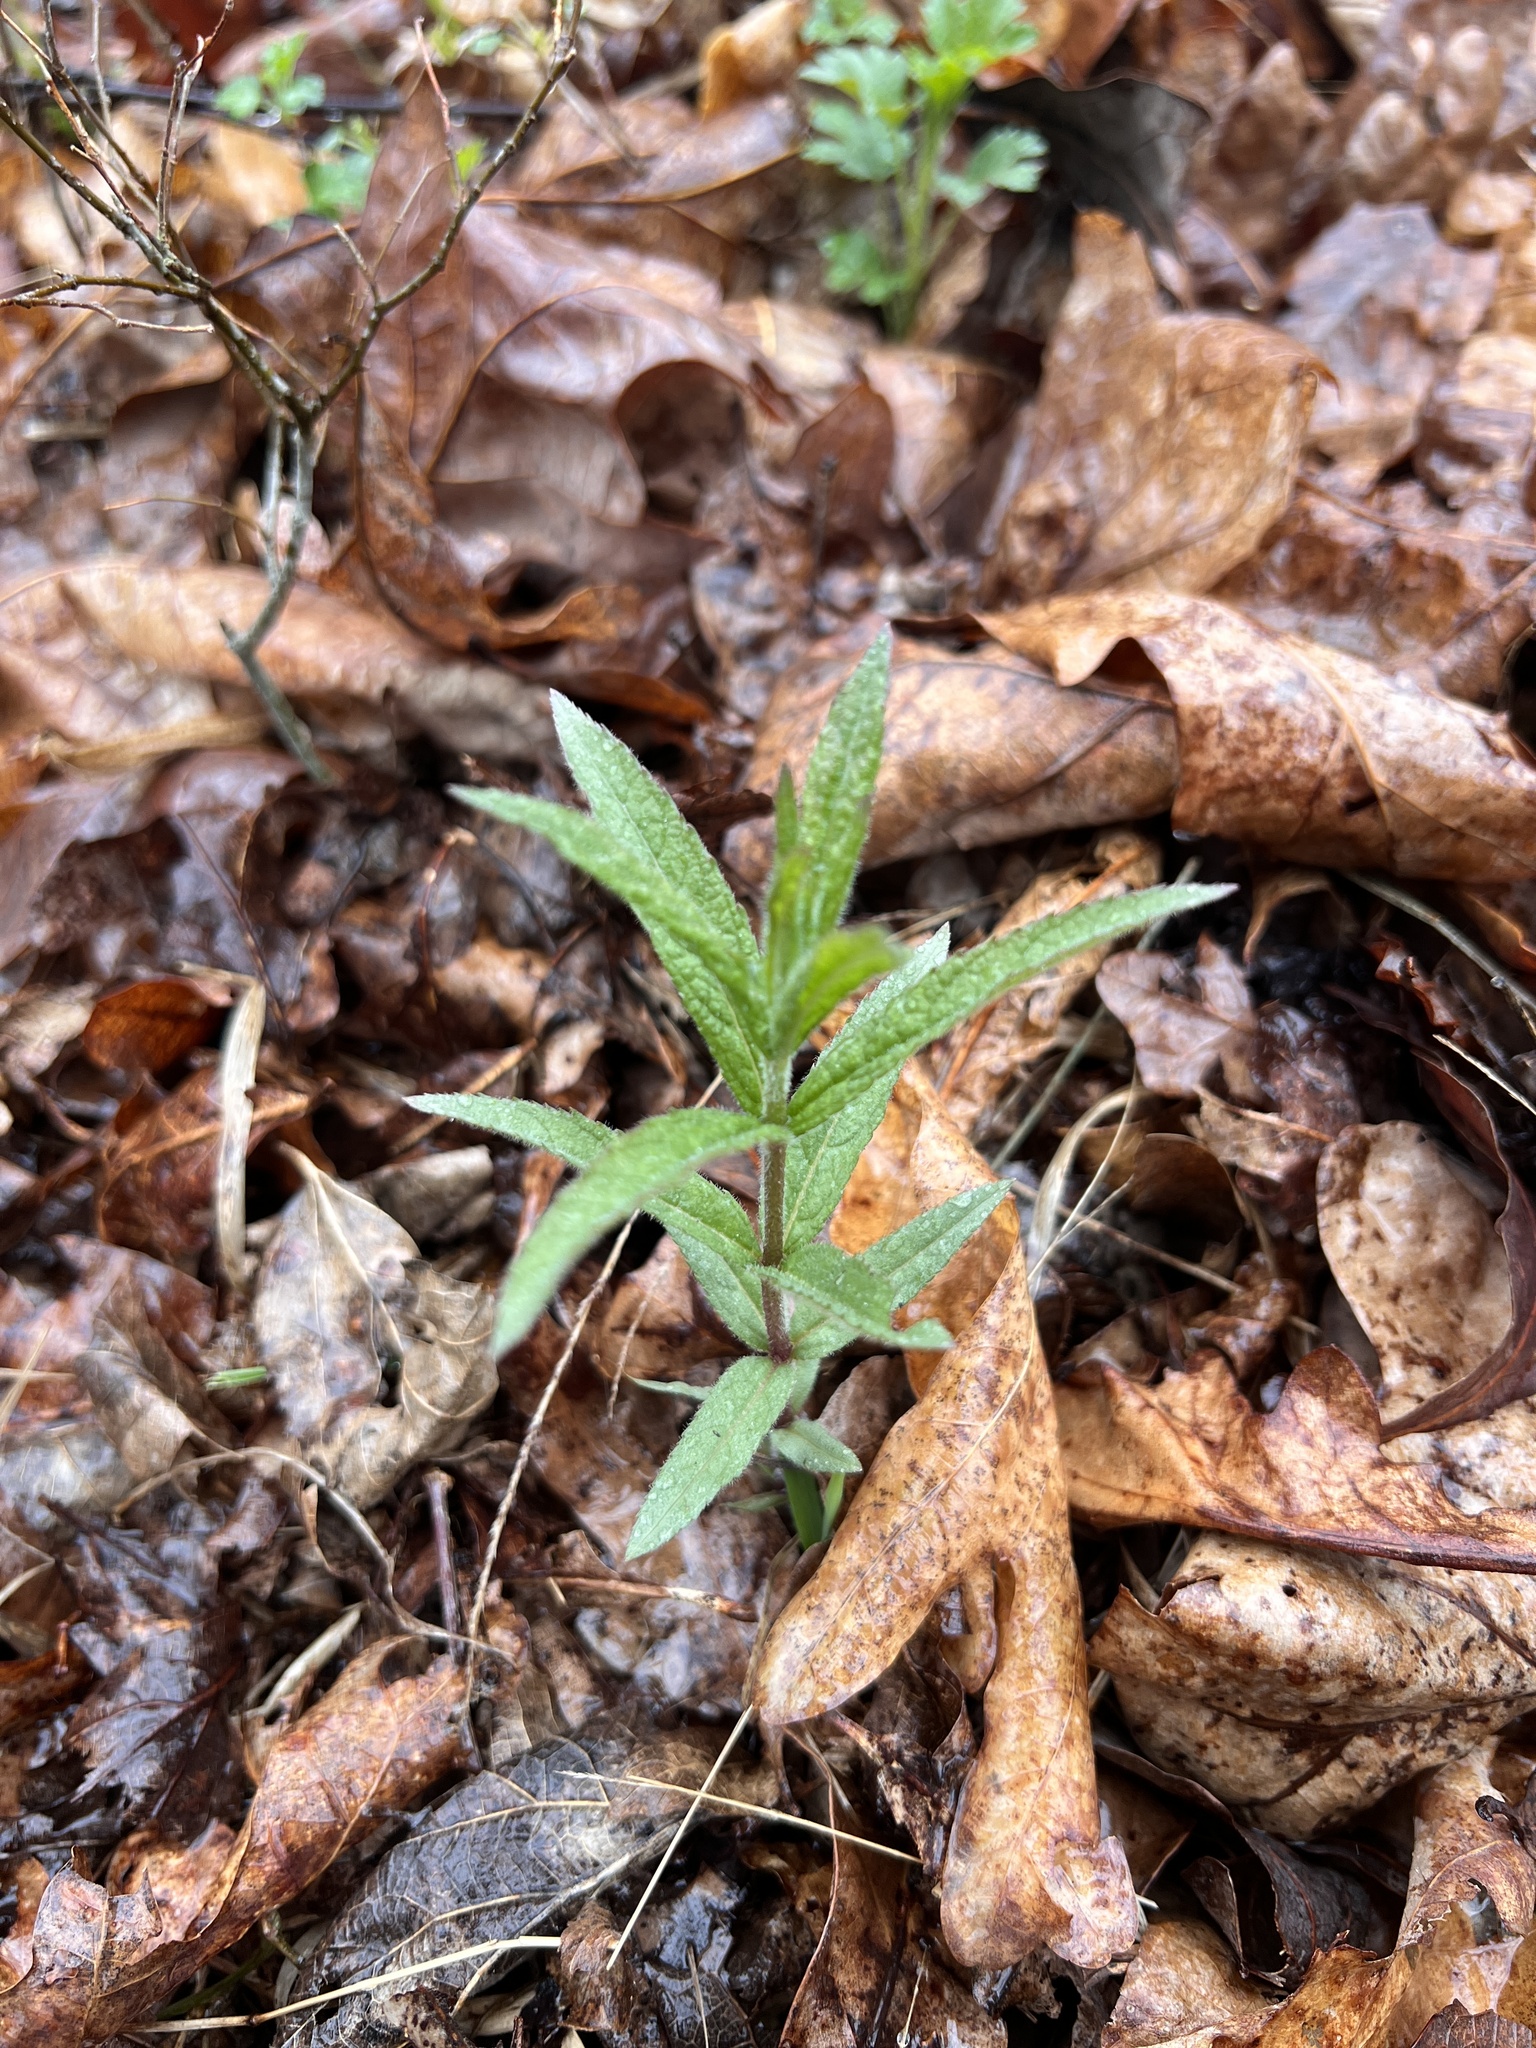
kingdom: Plantae
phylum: Tracheophyta
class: Magnoliopsida
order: Lamiales
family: Plantaginaceae
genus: Veronicastrum
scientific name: Veronicastrum virginicum
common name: Blackroot
